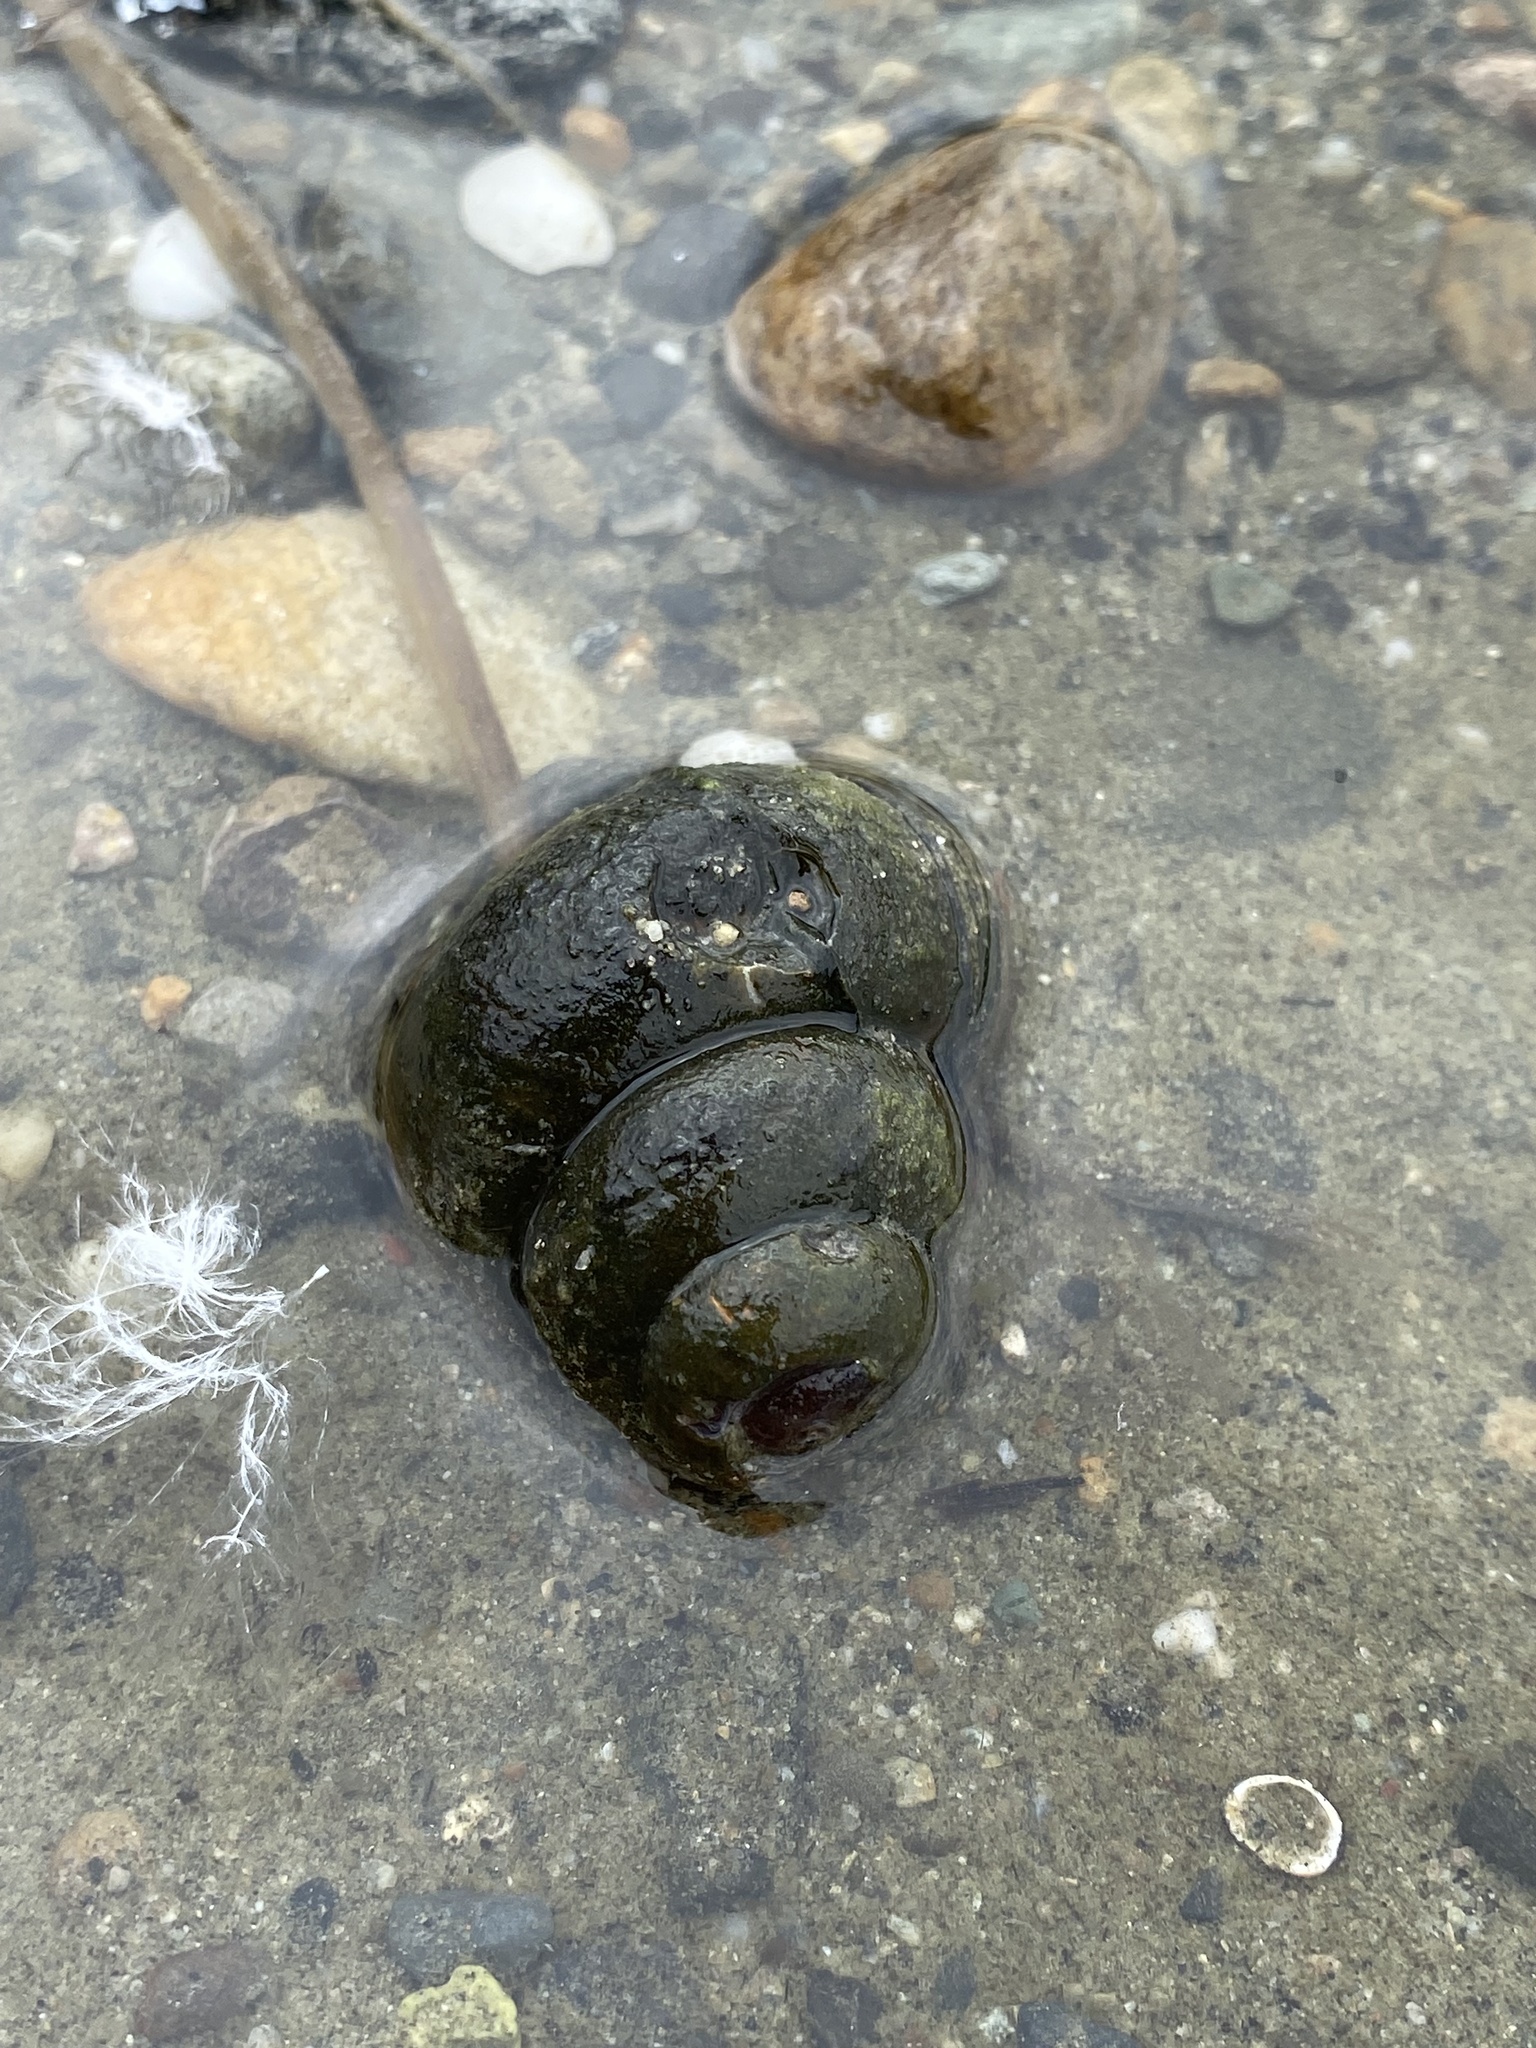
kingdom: Animalia
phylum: Mollusca
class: Gastropoda
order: Architaenioglossa
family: Viviparidae
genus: Cipangopaludina
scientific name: Cipangopaludina chinensis
